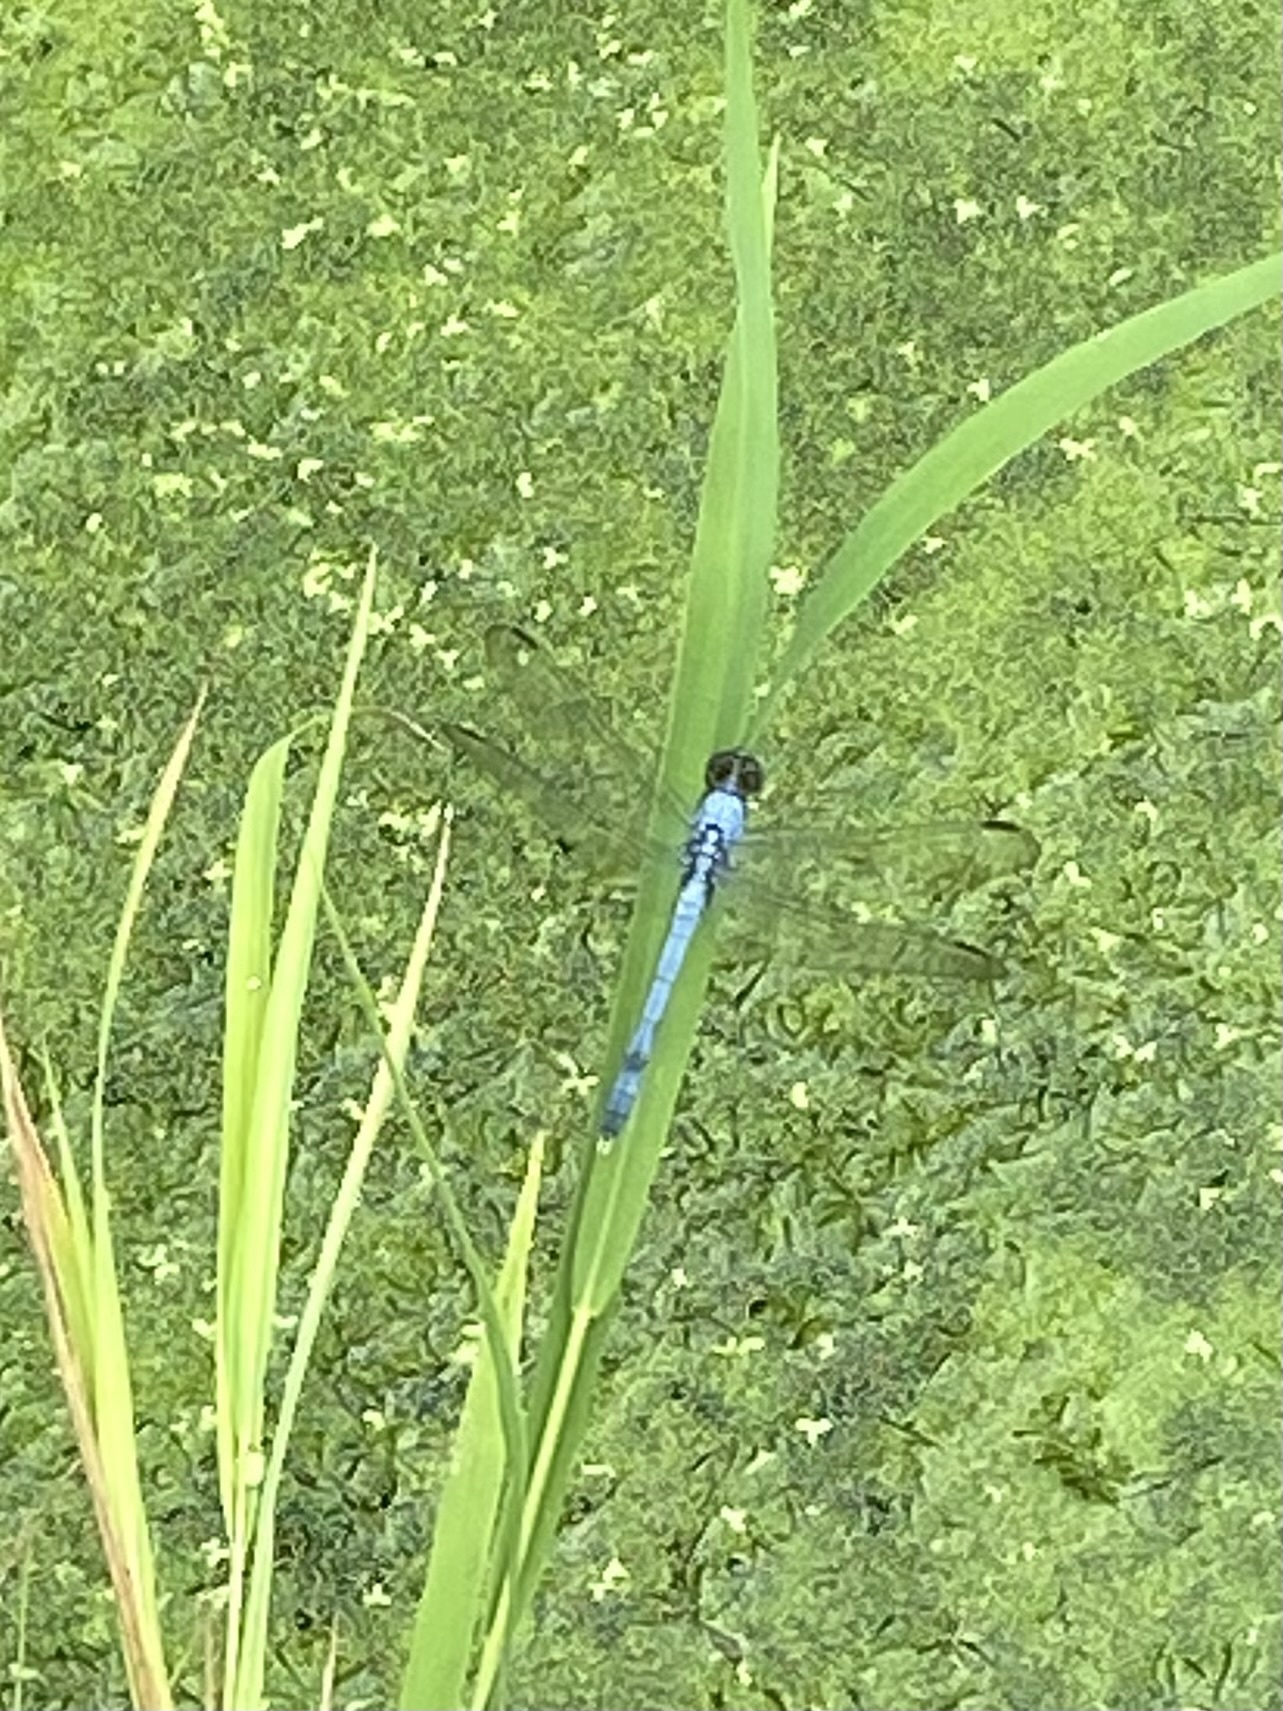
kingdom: Animalia
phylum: Arthropoda
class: Insecta
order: Odonata
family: Libellulidae
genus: Erythemis
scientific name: Erythemis simplicicollis
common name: Eastern pondhawk
